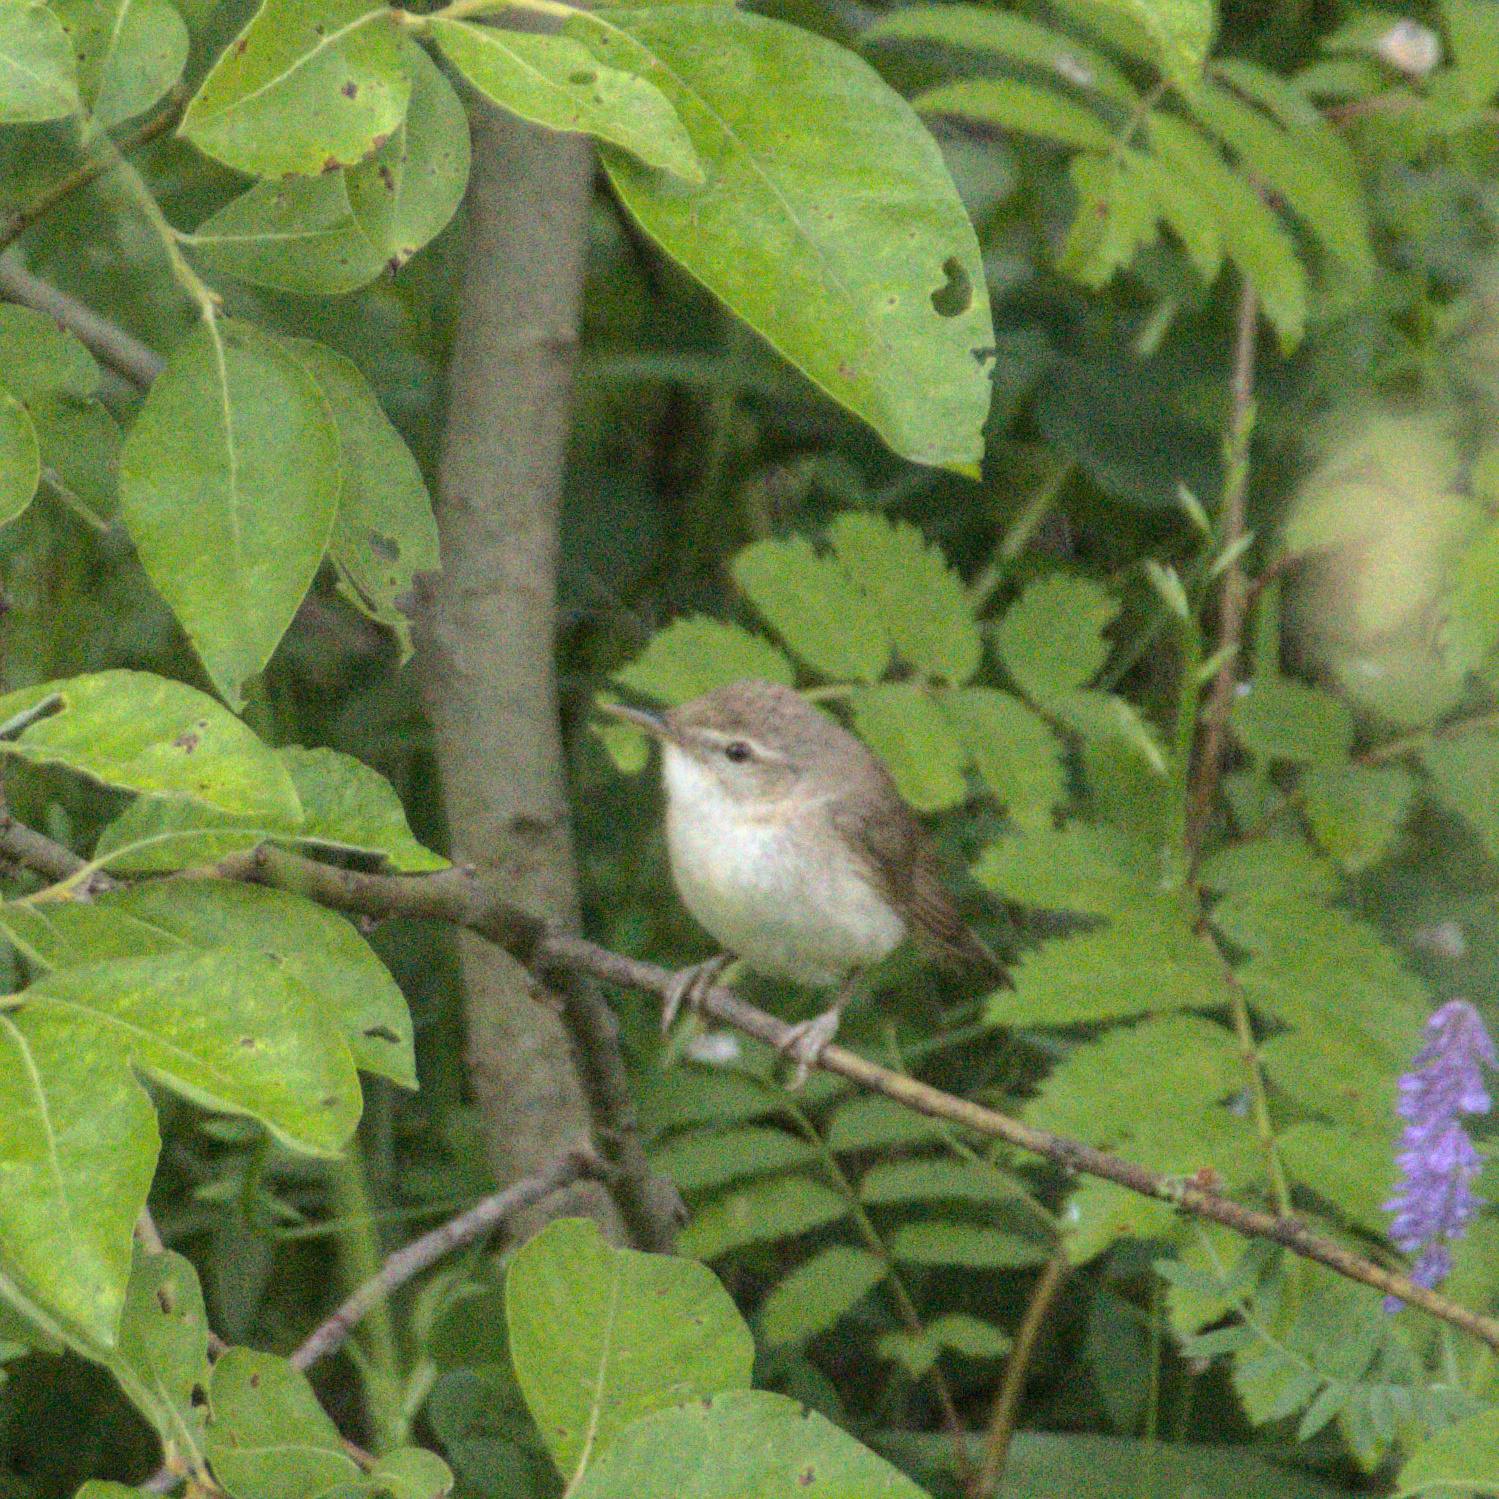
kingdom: Animalia
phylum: Chordata
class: Aves
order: Passeriformes
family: Acrocephalidae
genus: Acrocephalus
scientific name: Acrocephalus dumetorum
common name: Blyth's reed warbler
